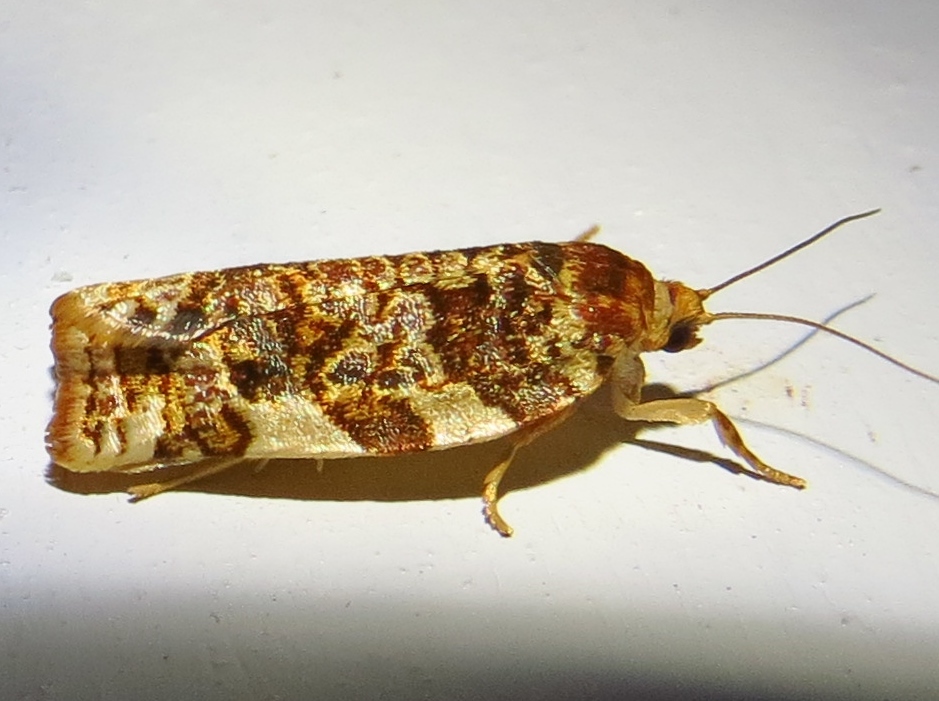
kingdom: Animalia
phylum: Arthropoda
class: Insecta
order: Lepidoptera
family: Tortricidae
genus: Archips
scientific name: Archips argyrospila
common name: Fruit-tree leafroller moth
